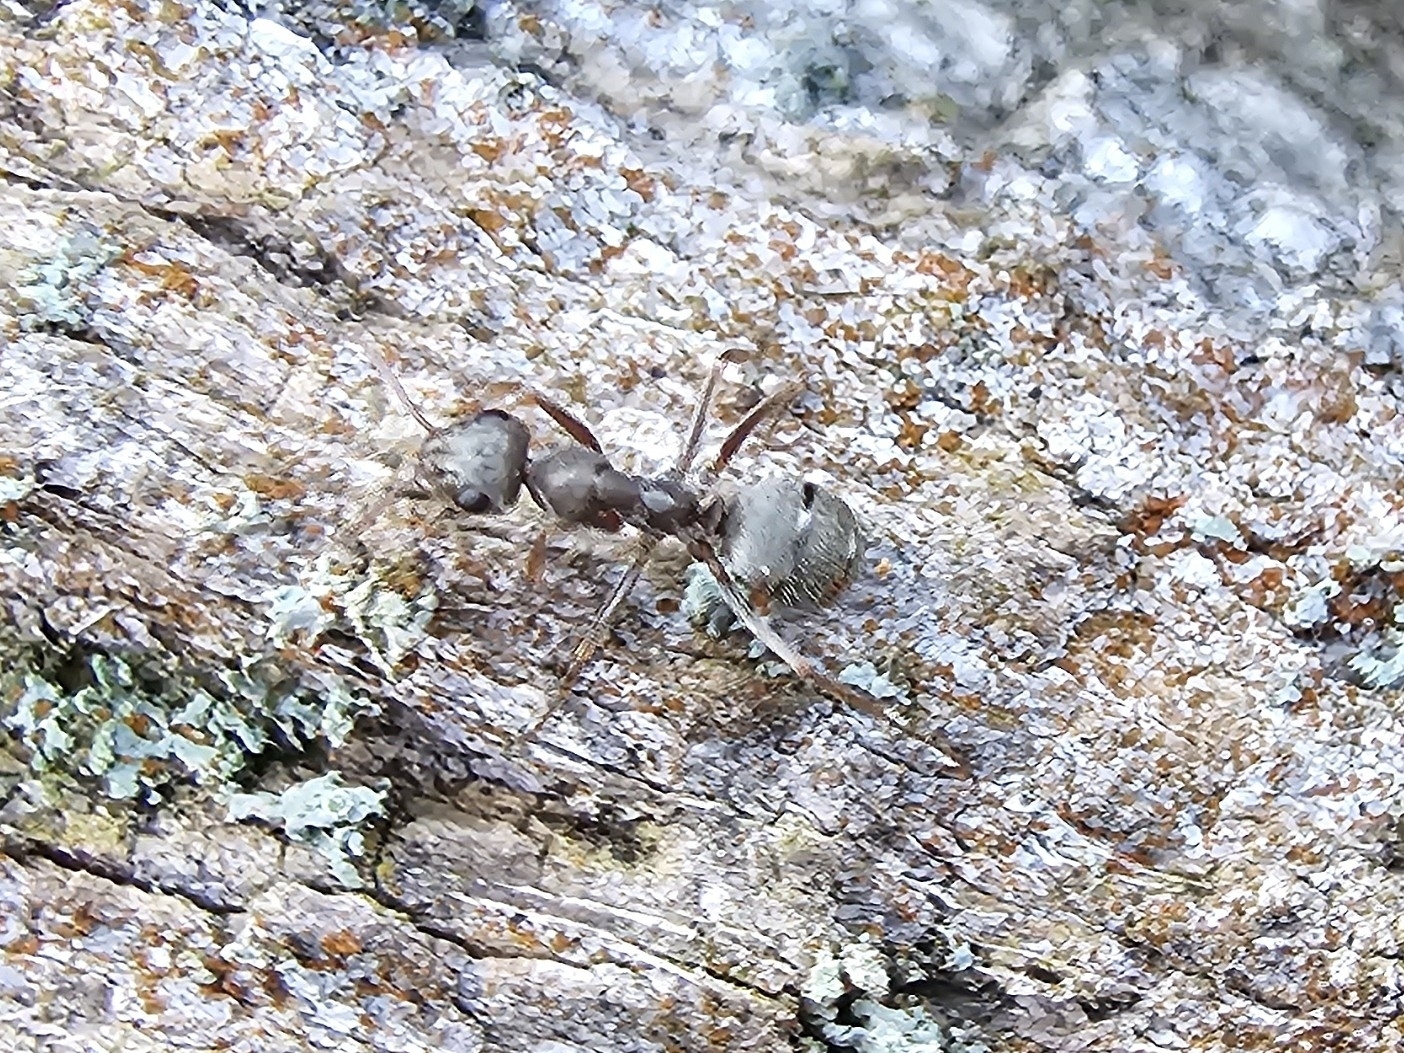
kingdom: Animalia
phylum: Arthropoda
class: Insecta
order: Hymenoptera
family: Formicidae
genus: Formica
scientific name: Formica cinerea
